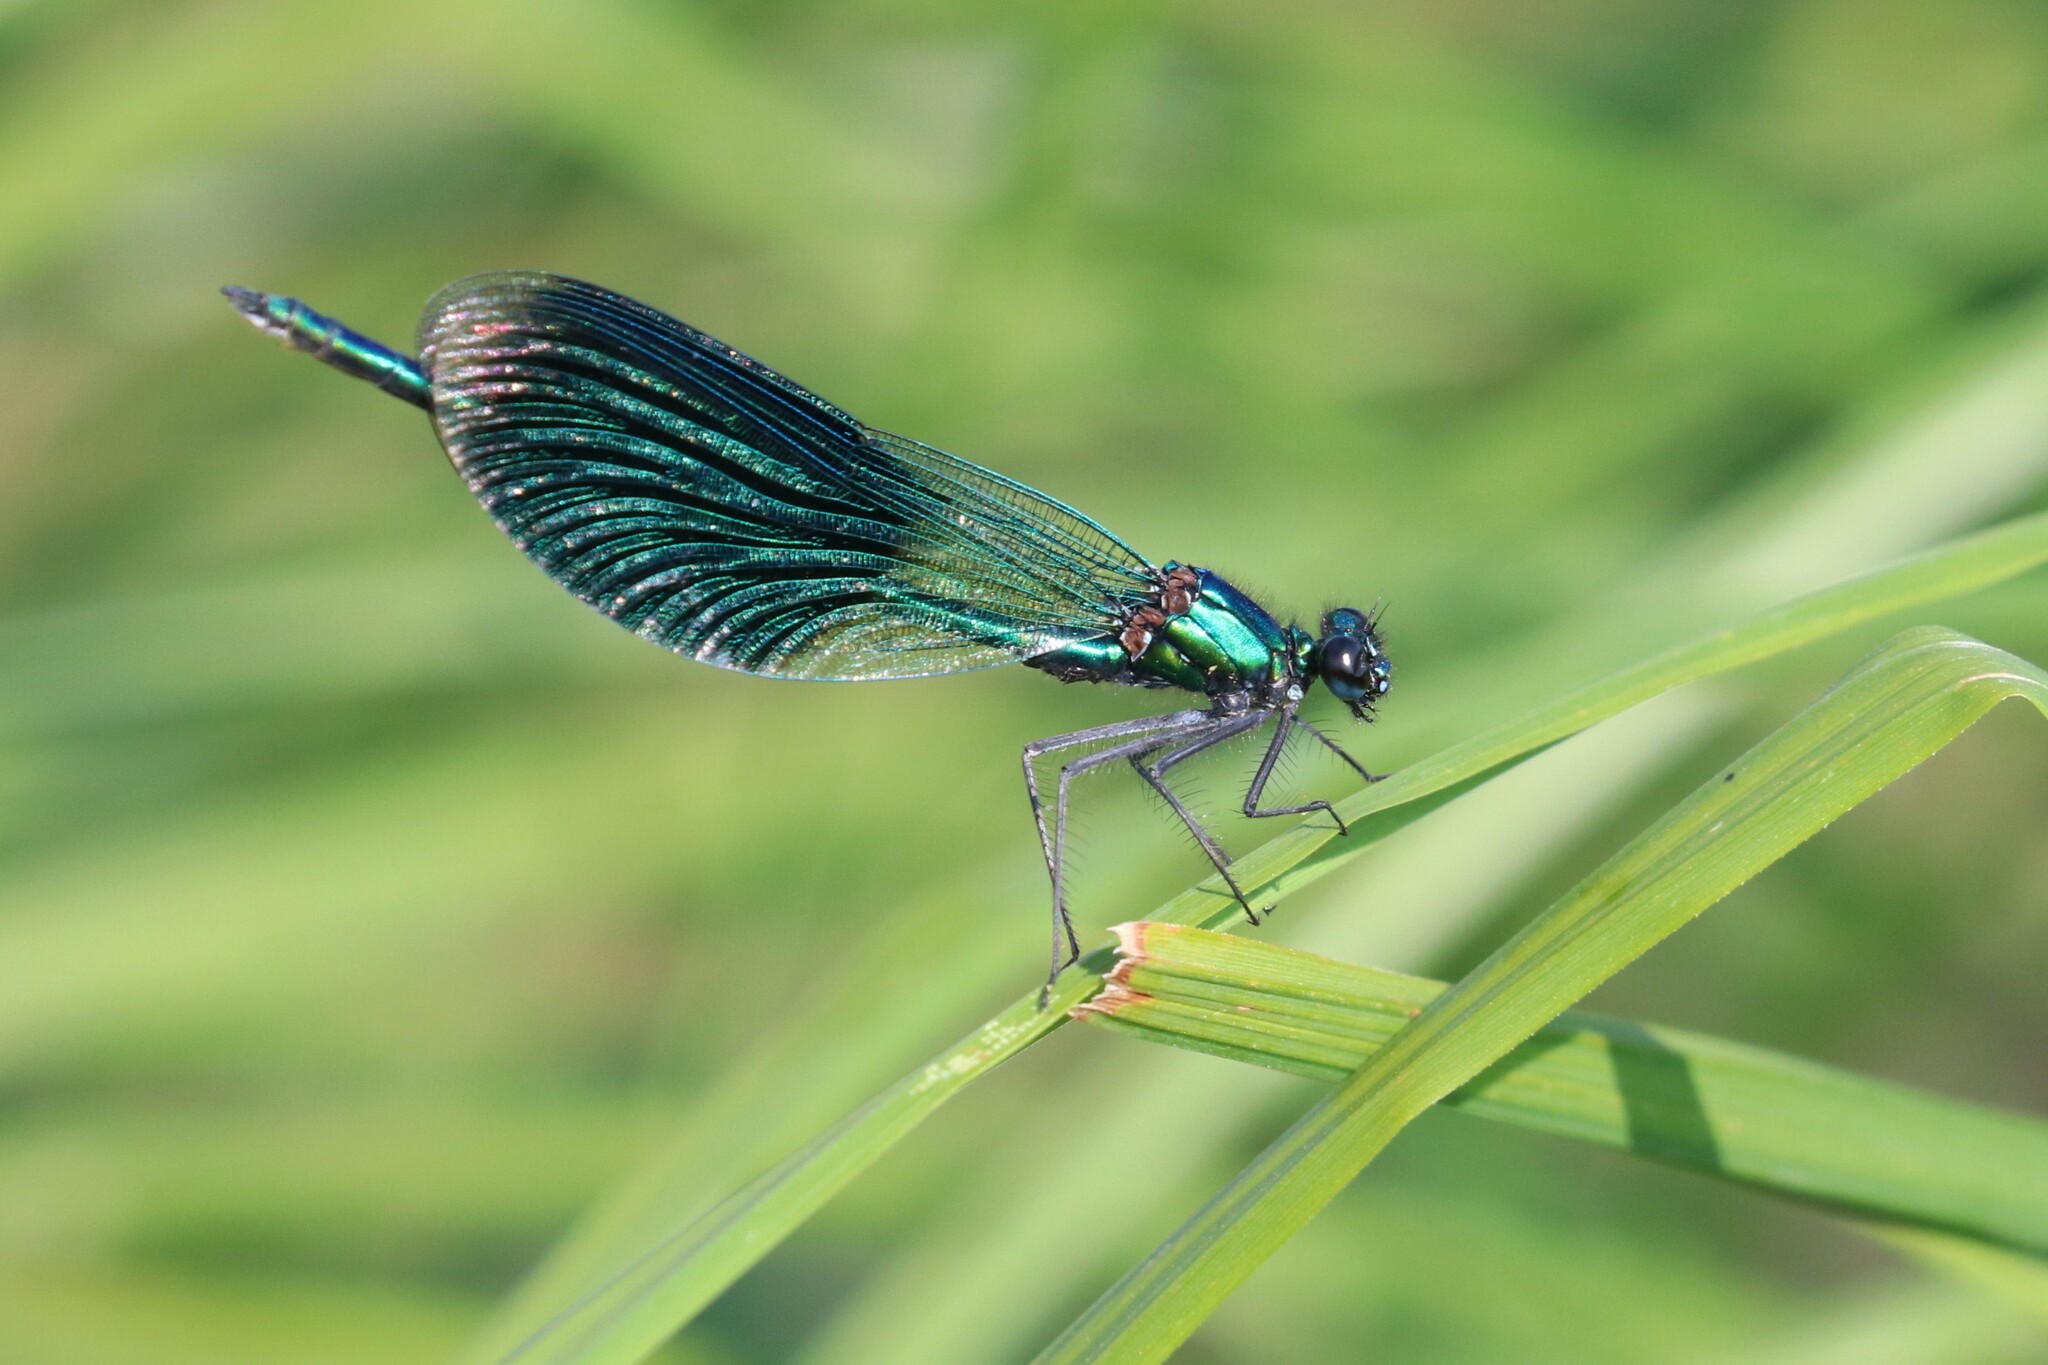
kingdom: Animalia
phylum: Arthropoda
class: Insecta
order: Odonata
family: Calopterygidae
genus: Calopteryx
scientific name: Calopteryx splendens
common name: Banded demoiselle
